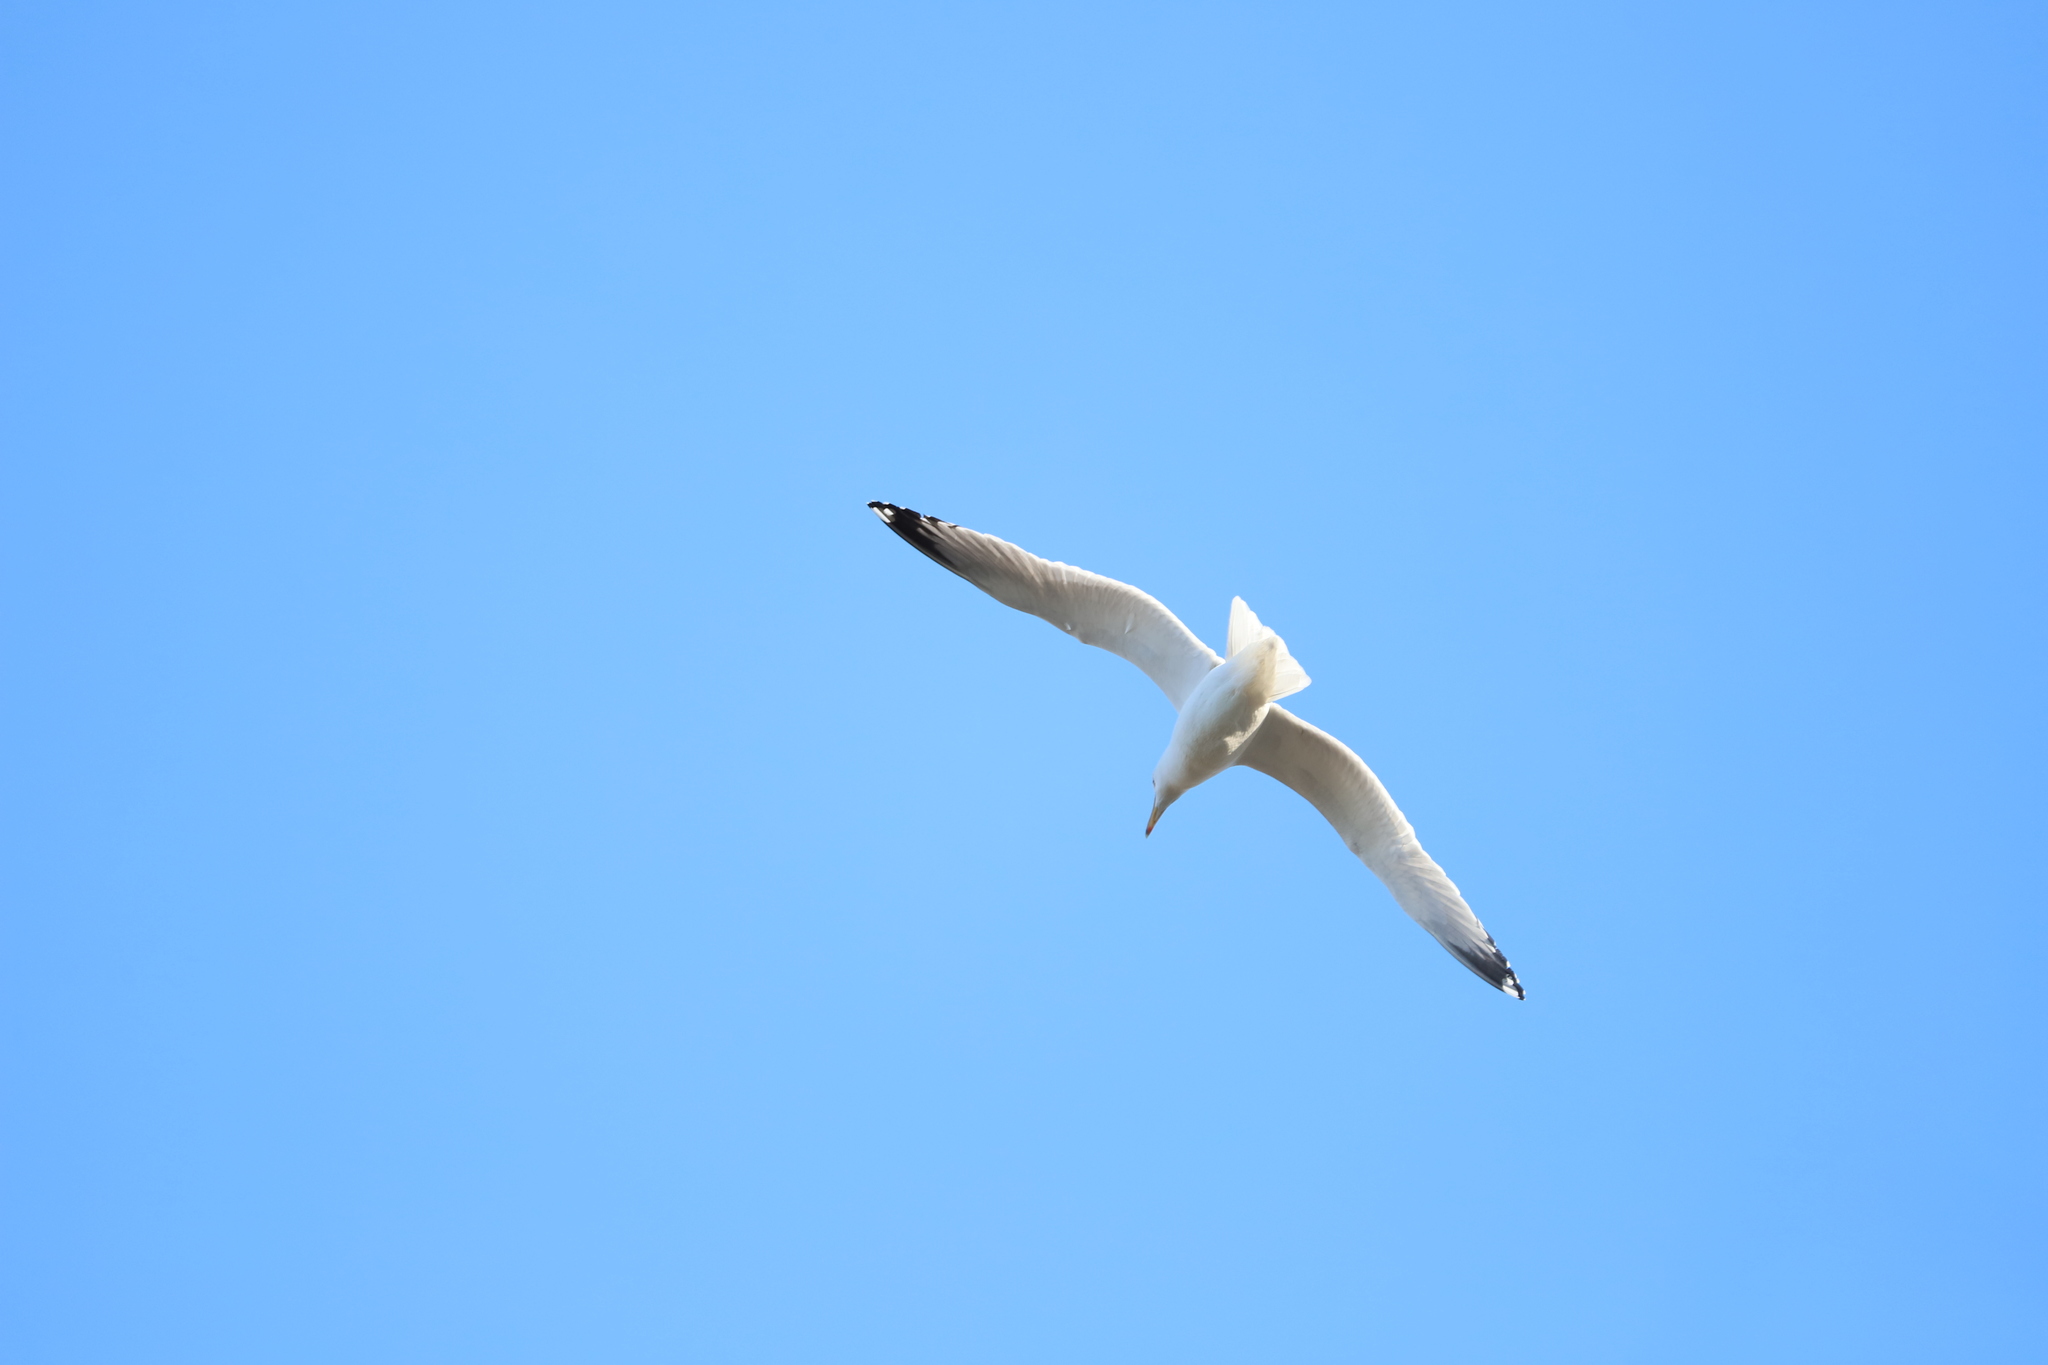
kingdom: Animalia
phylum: Chordata
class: Aves
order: Charadriiformes
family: Laridae
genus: Larus
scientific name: Larus argentatus
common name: Herring gull
